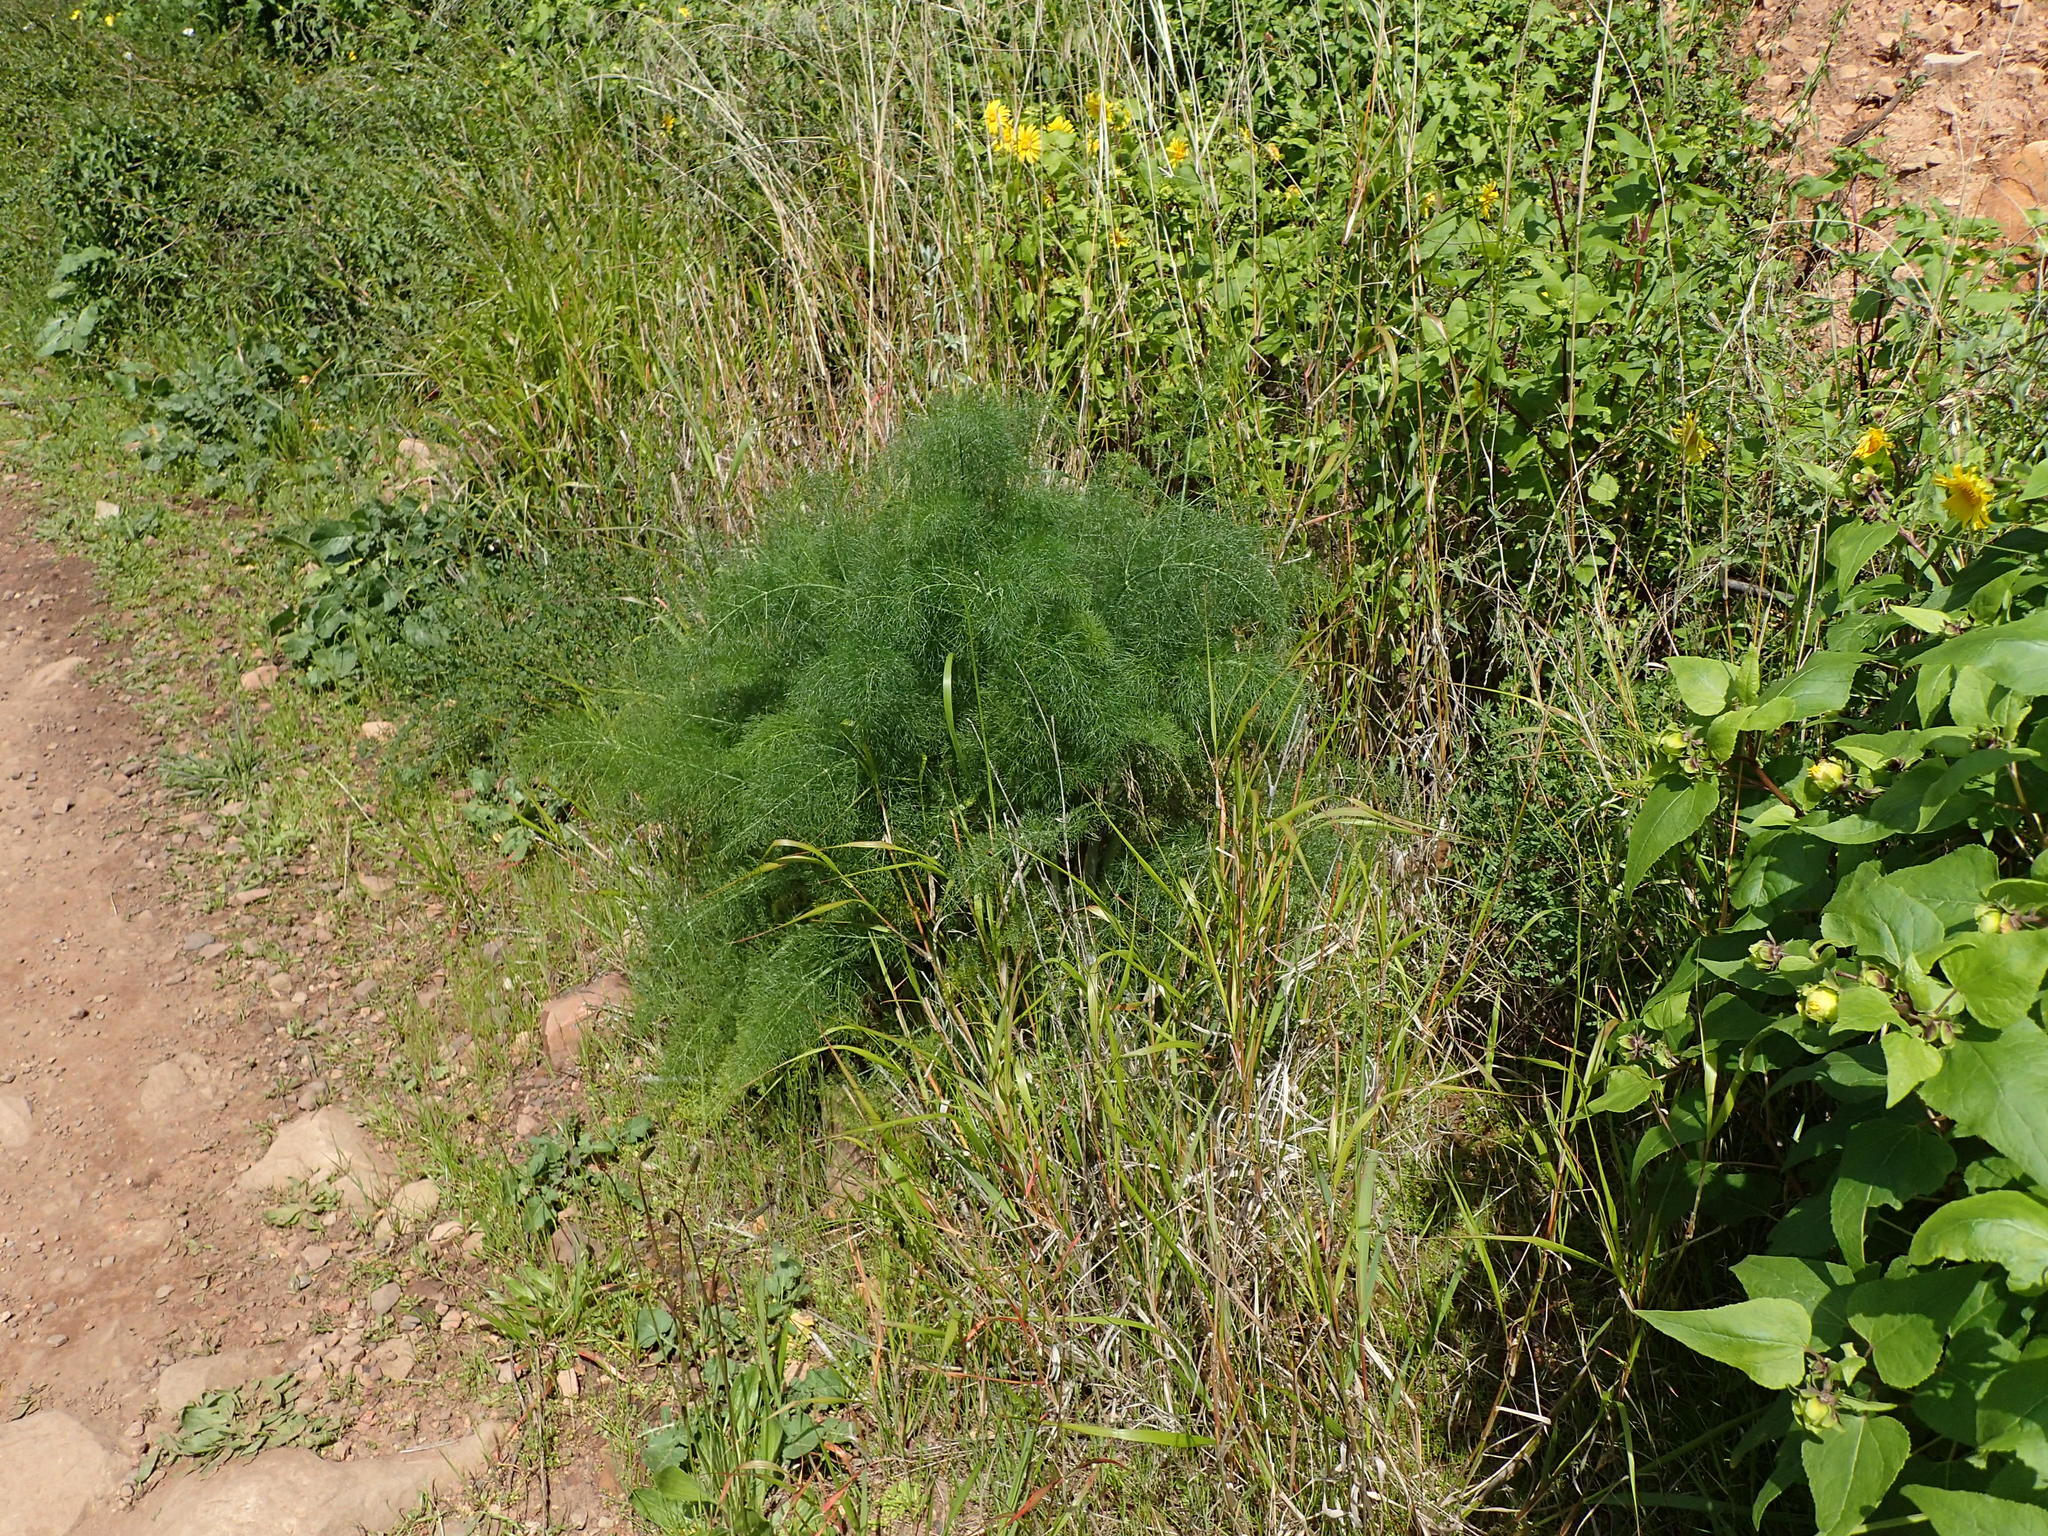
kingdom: Plantae
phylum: Tracheophyta
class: Magnoliopsida
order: Apiales
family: Apiaceae
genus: Foeniculum
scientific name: Foeniculum vulgare
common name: Fennel
